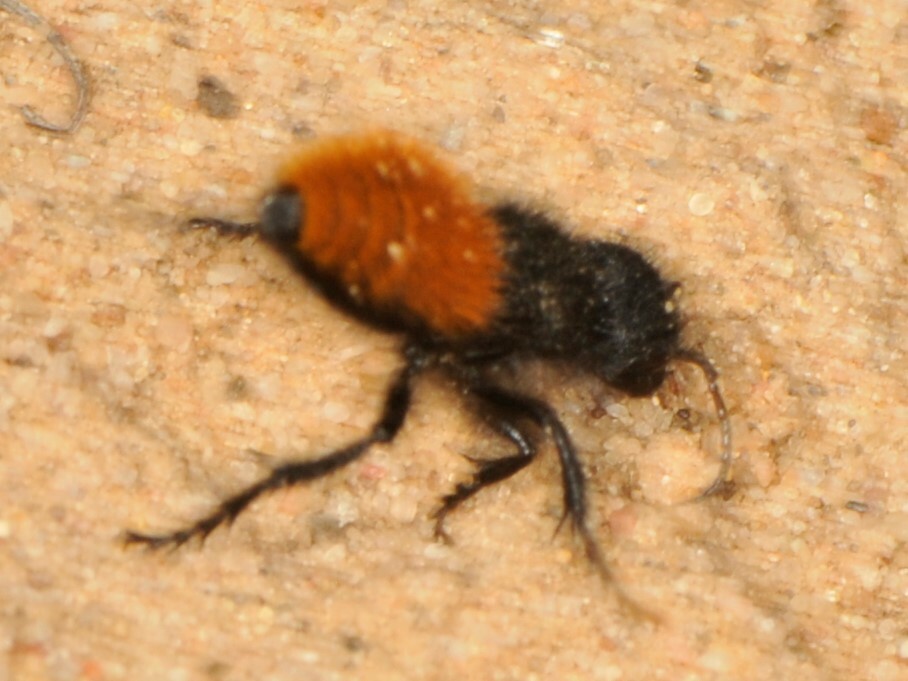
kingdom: Animalia
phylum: Arthropoda
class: Insecta
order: Hymenoptera
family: Mutillidae
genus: Dasymutilla
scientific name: Dasymutilla gorgon
